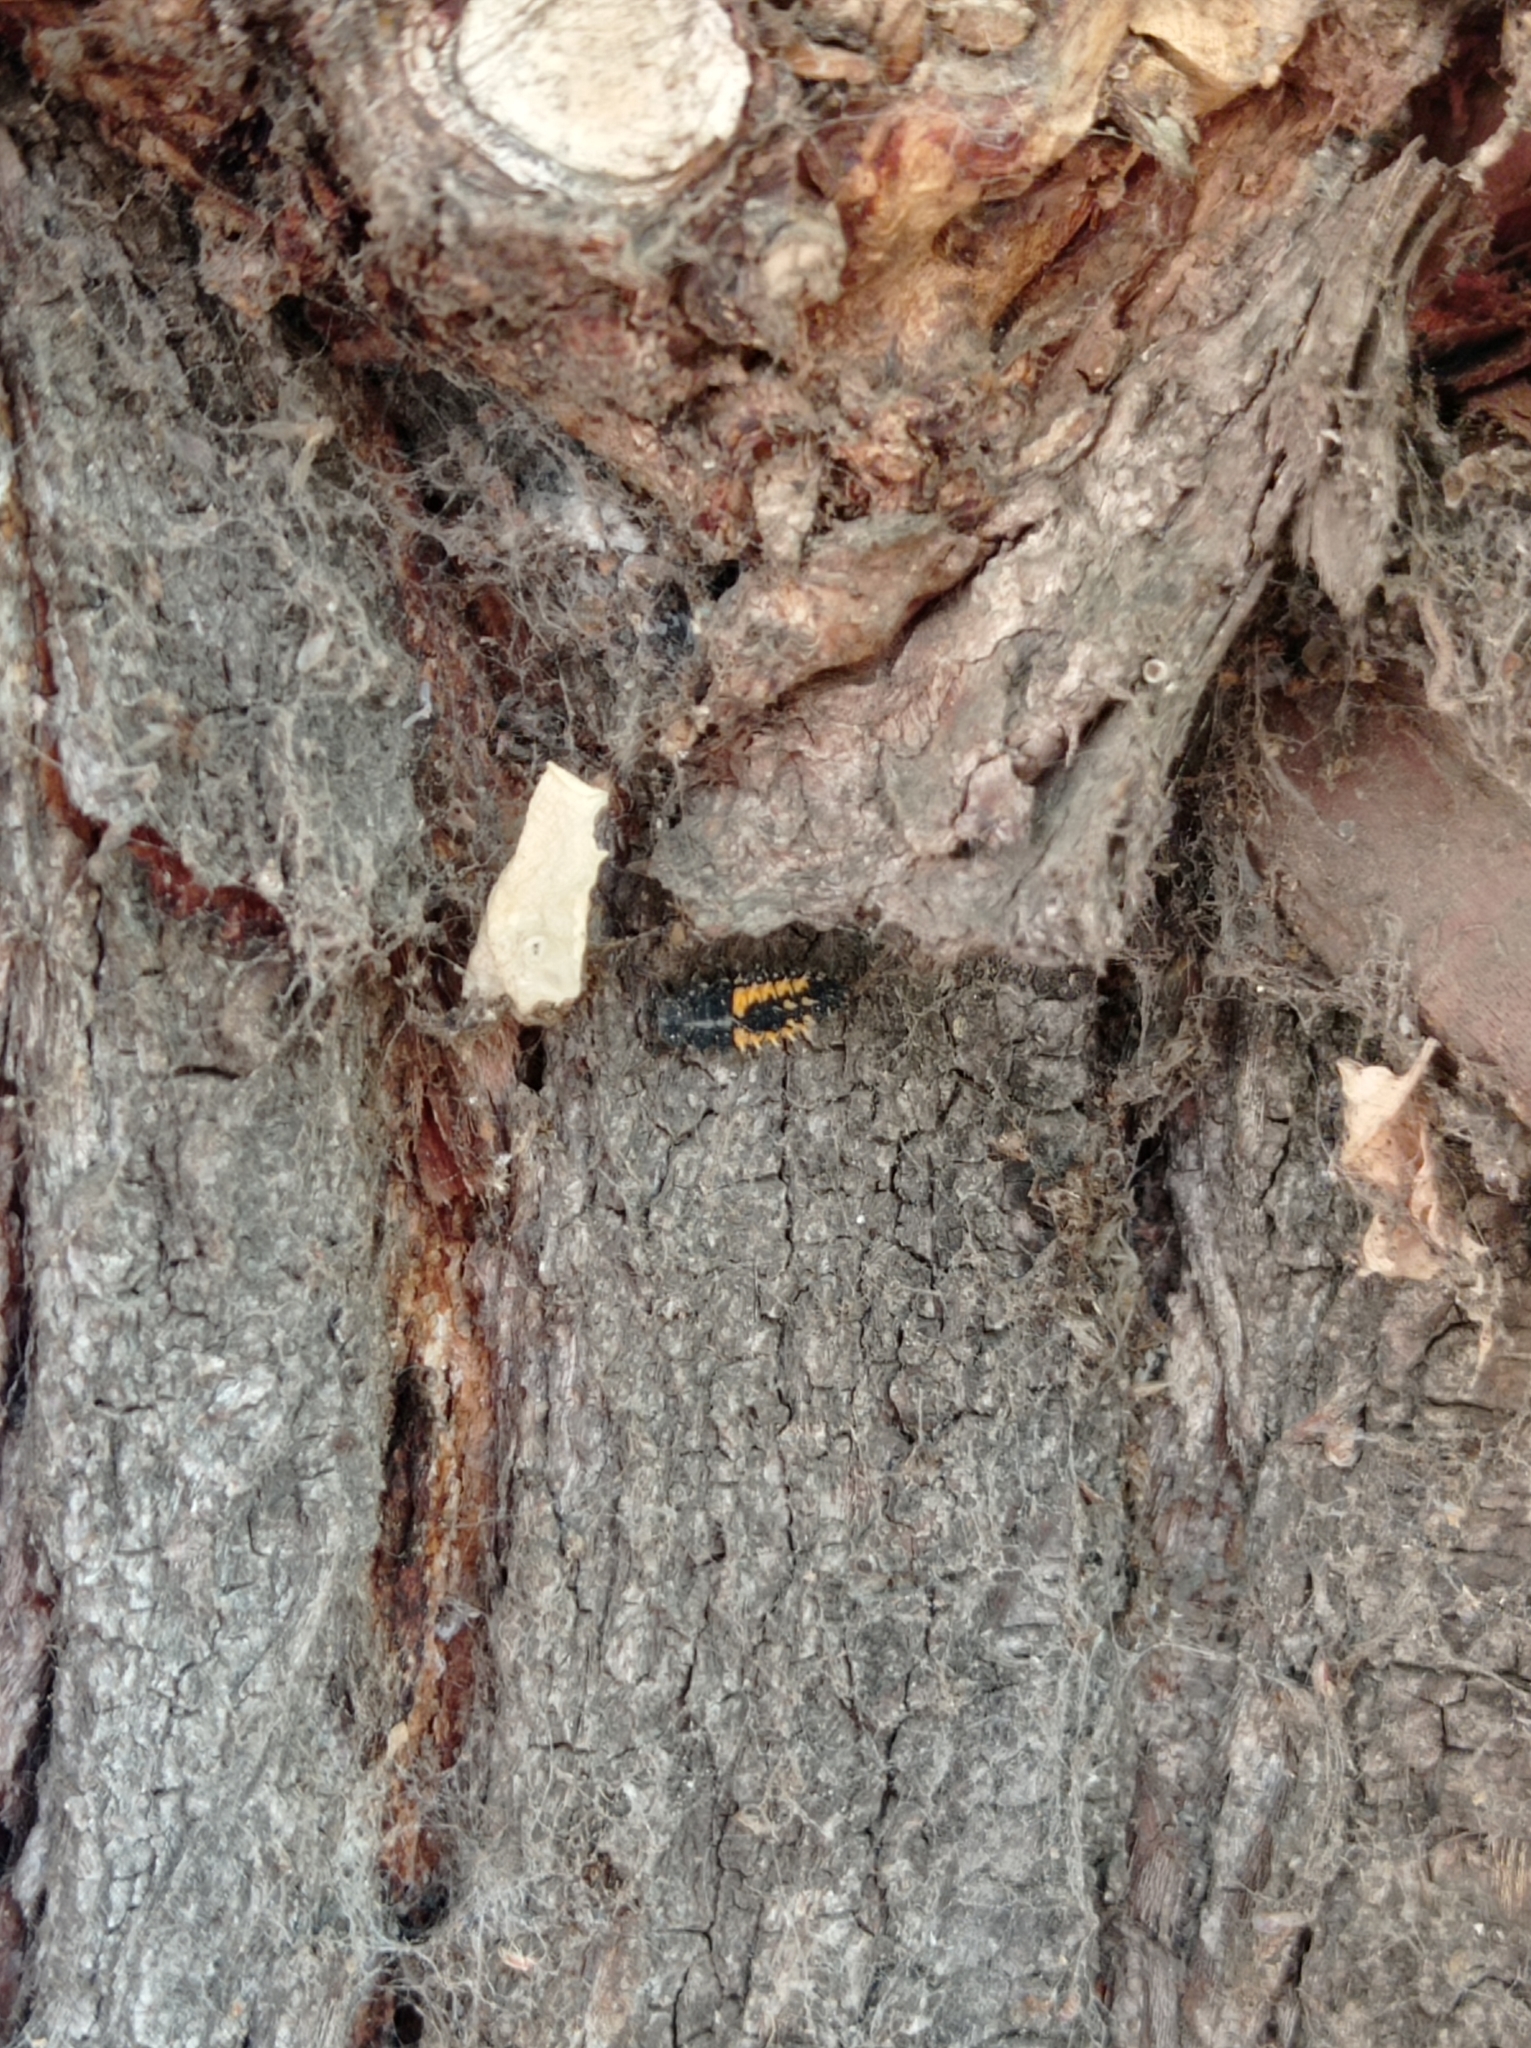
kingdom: Animalia
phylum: Arthropoda
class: Insecta
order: Coleoptera
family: Coccinellidae
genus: Harmonia
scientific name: Harmonia axyridis
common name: Harlequin ladybird
